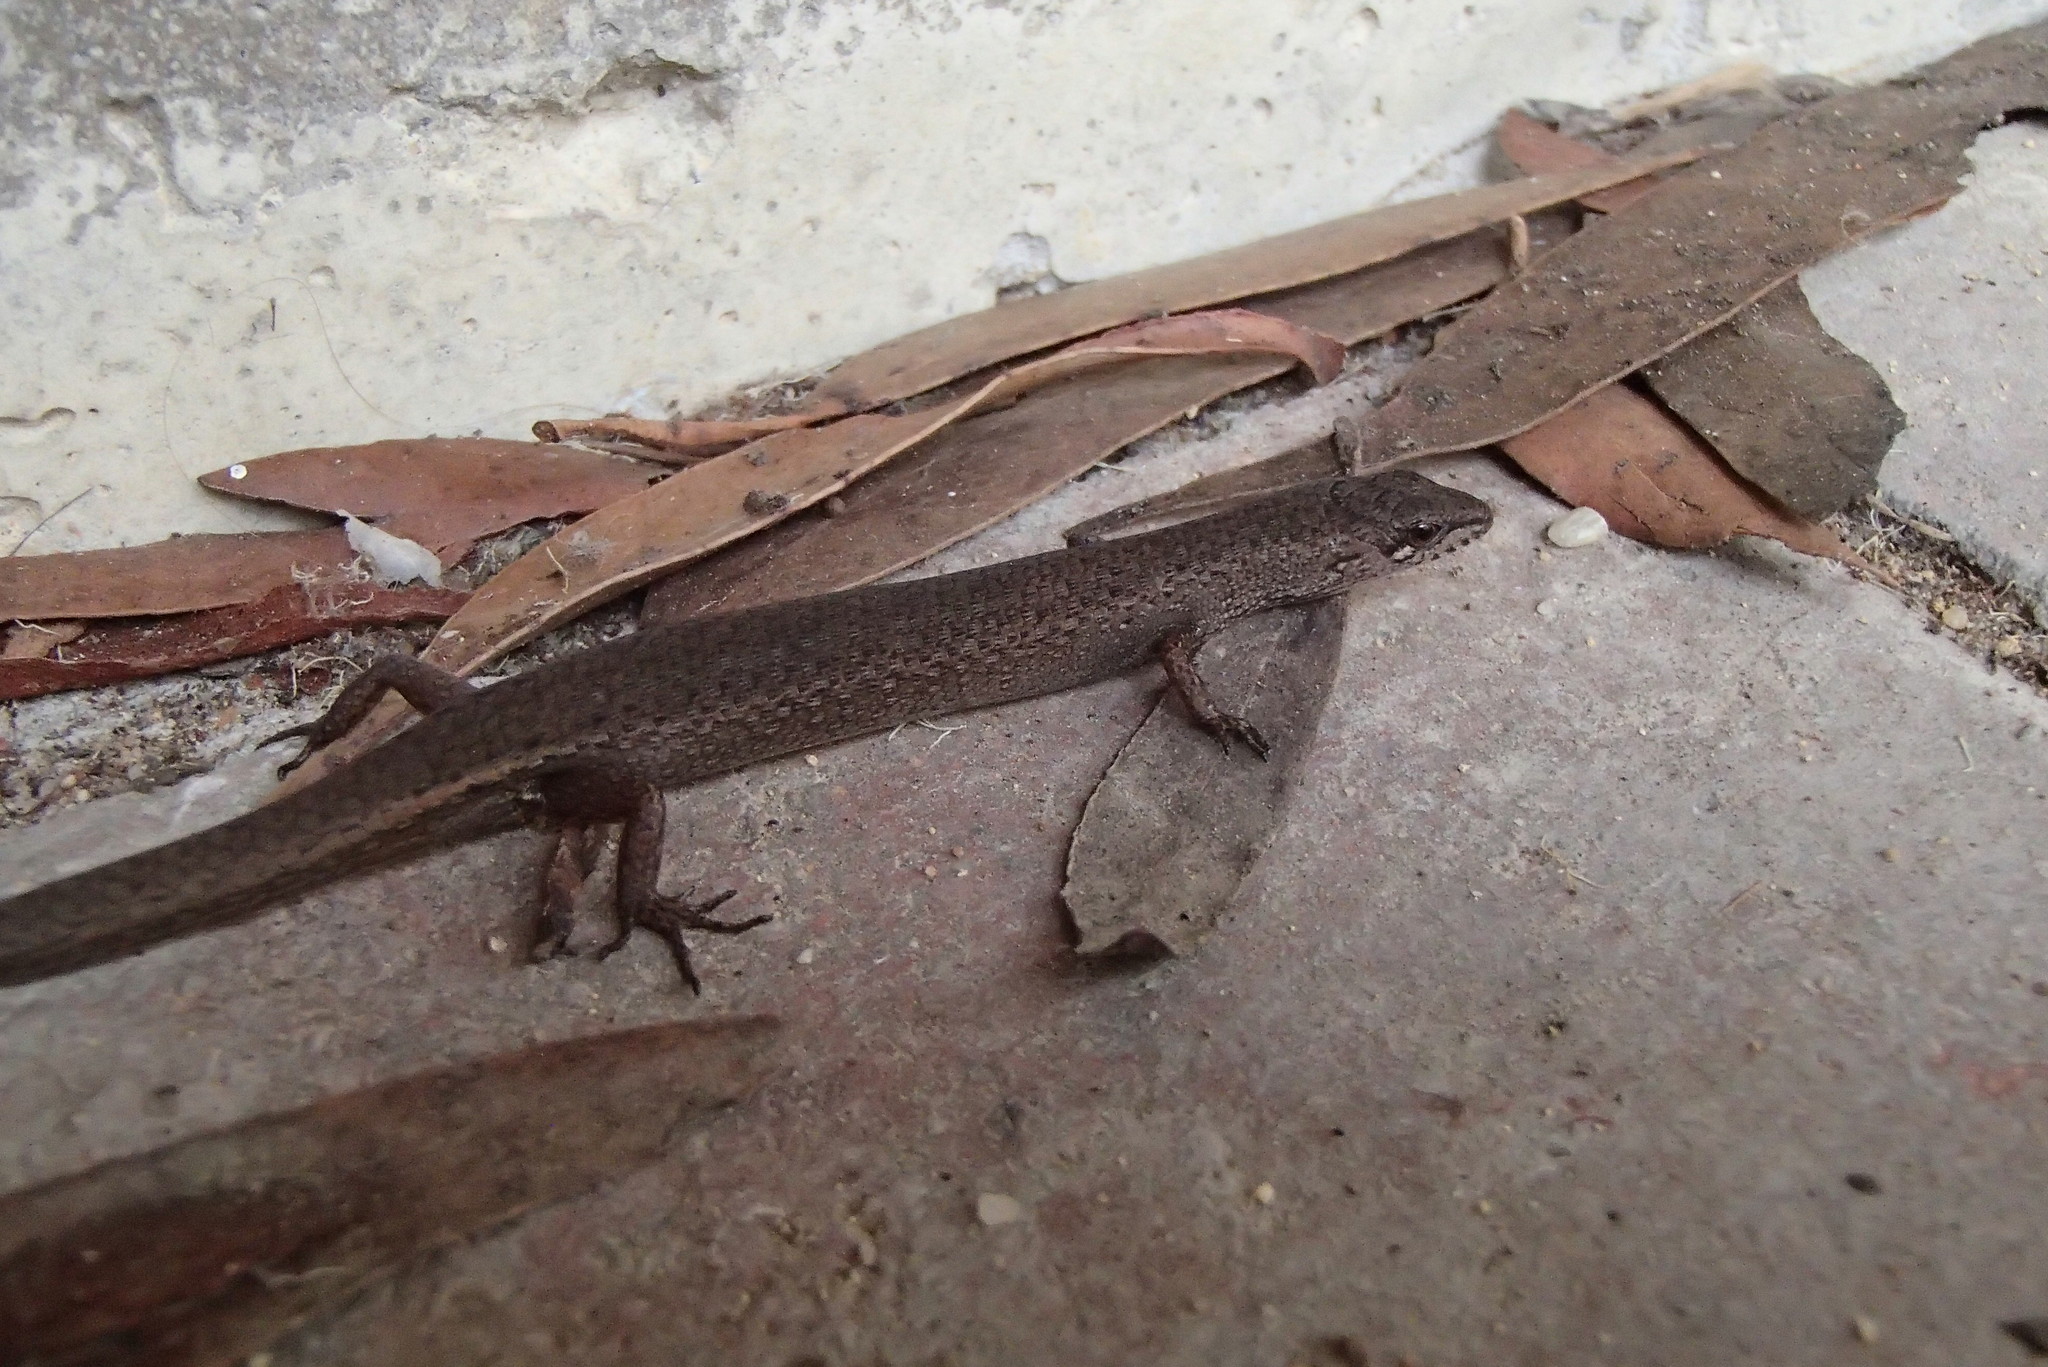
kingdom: Animalia
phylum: Chordata
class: Squamata
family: Scincidae
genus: Saproscincus
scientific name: Saproscincus mustelinus
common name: Southern weasel skink
